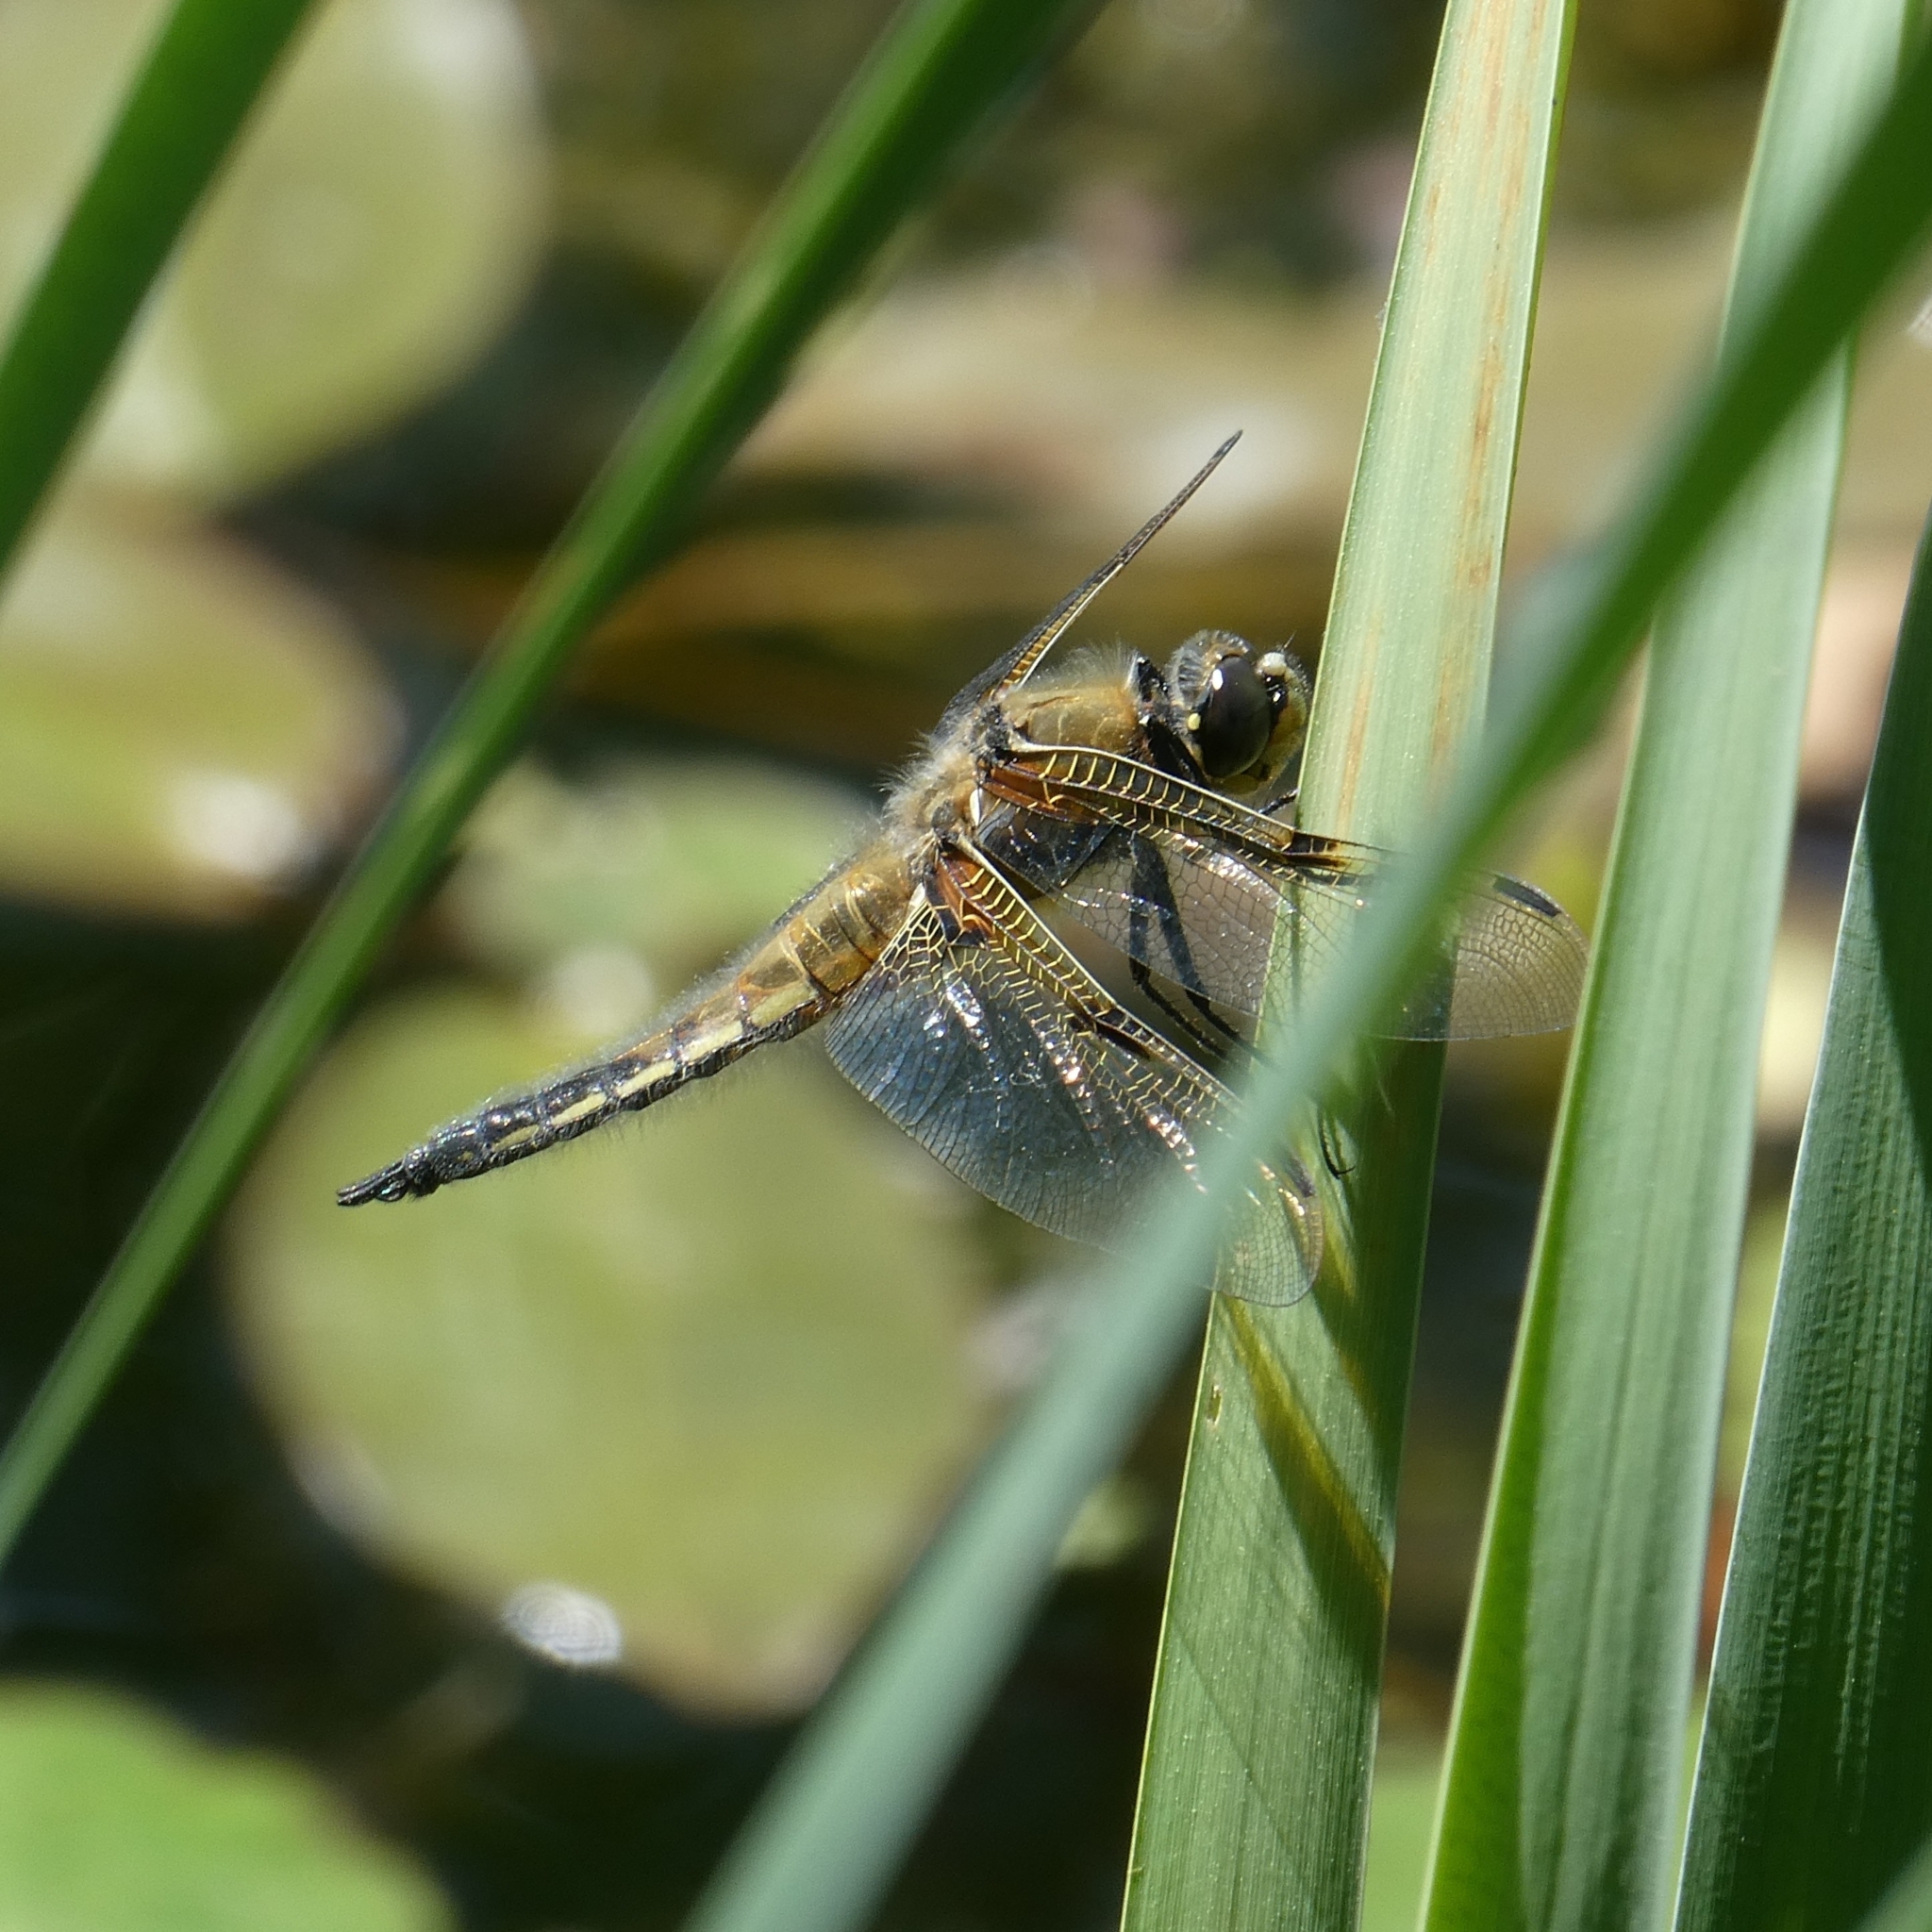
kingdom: Animalia
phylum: Arthropoda
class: Insecta
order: Odonata
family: Libellulidae
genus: Libellula
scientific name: Libellula quadrimaculata
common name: Four-spotted chaser
